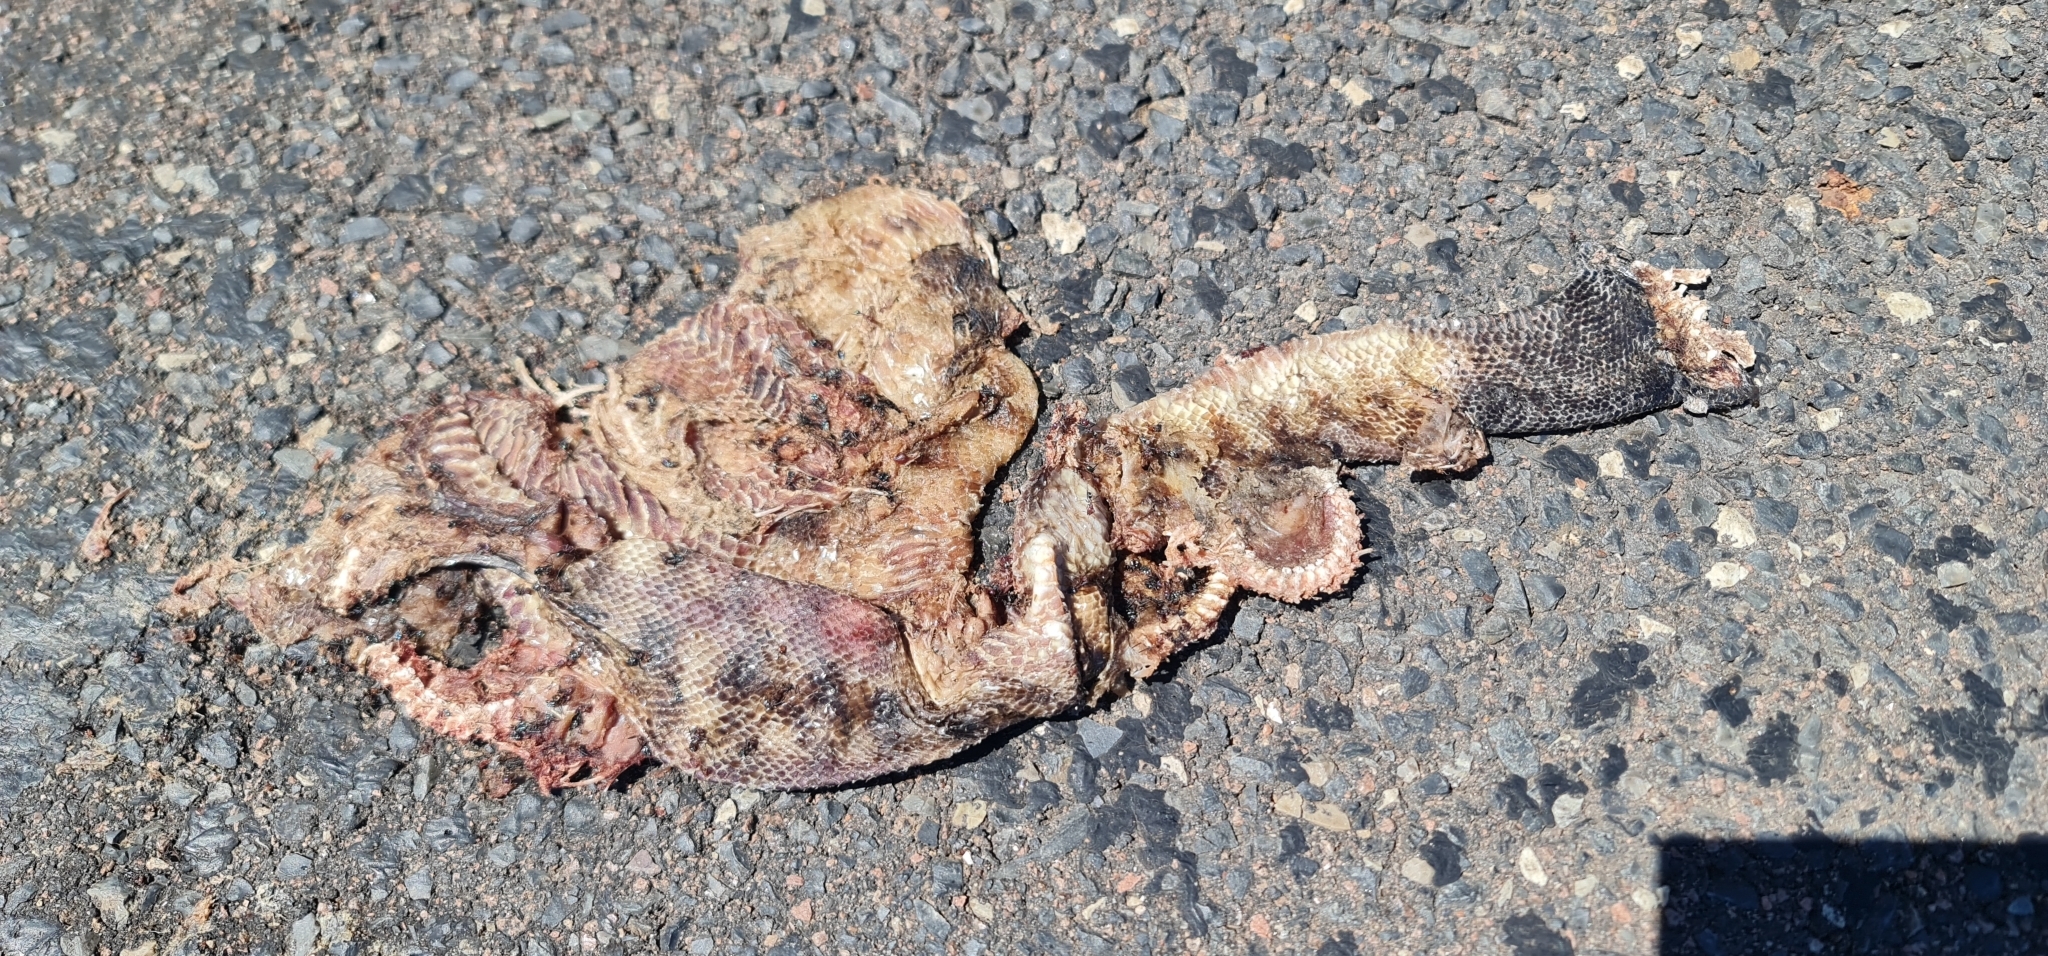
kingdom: Animalia
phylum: Chordata
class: Squamata
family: Pythonidae
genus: Aspidites
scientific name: Aspidites melanocephalus
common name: Black-headed python
